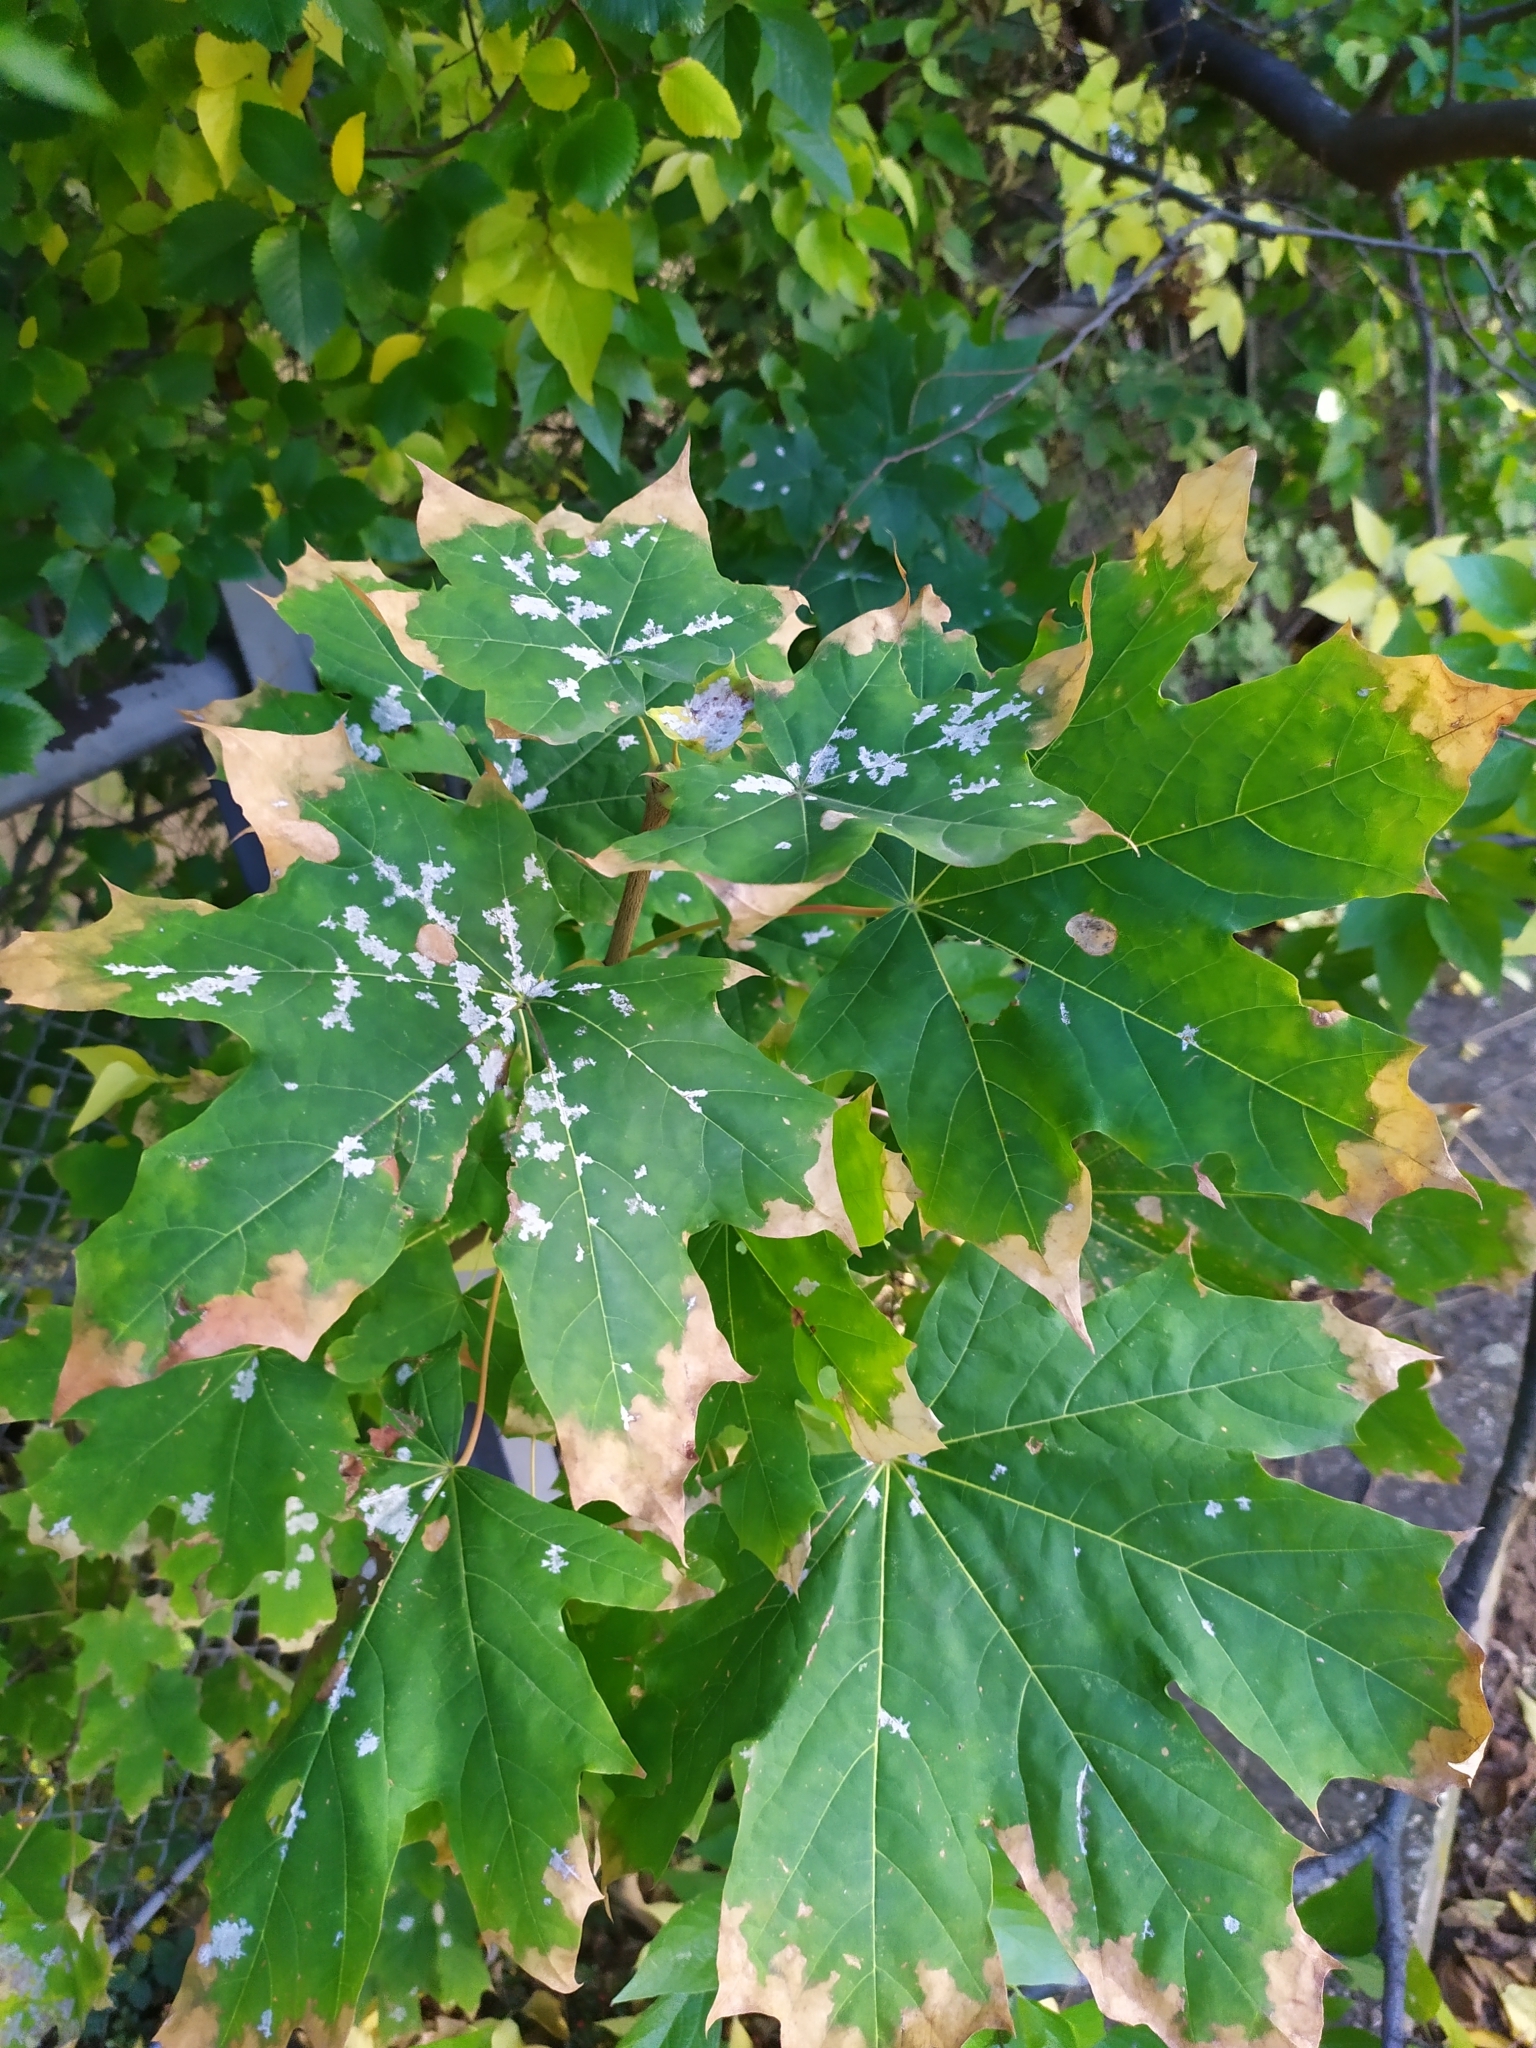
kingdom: Fungi
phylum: Ascomycota
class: Leotiomycetes
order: Helotiales
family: Erysiphaceae
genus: Sawadaea
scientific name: Sawadaea tulasnei
